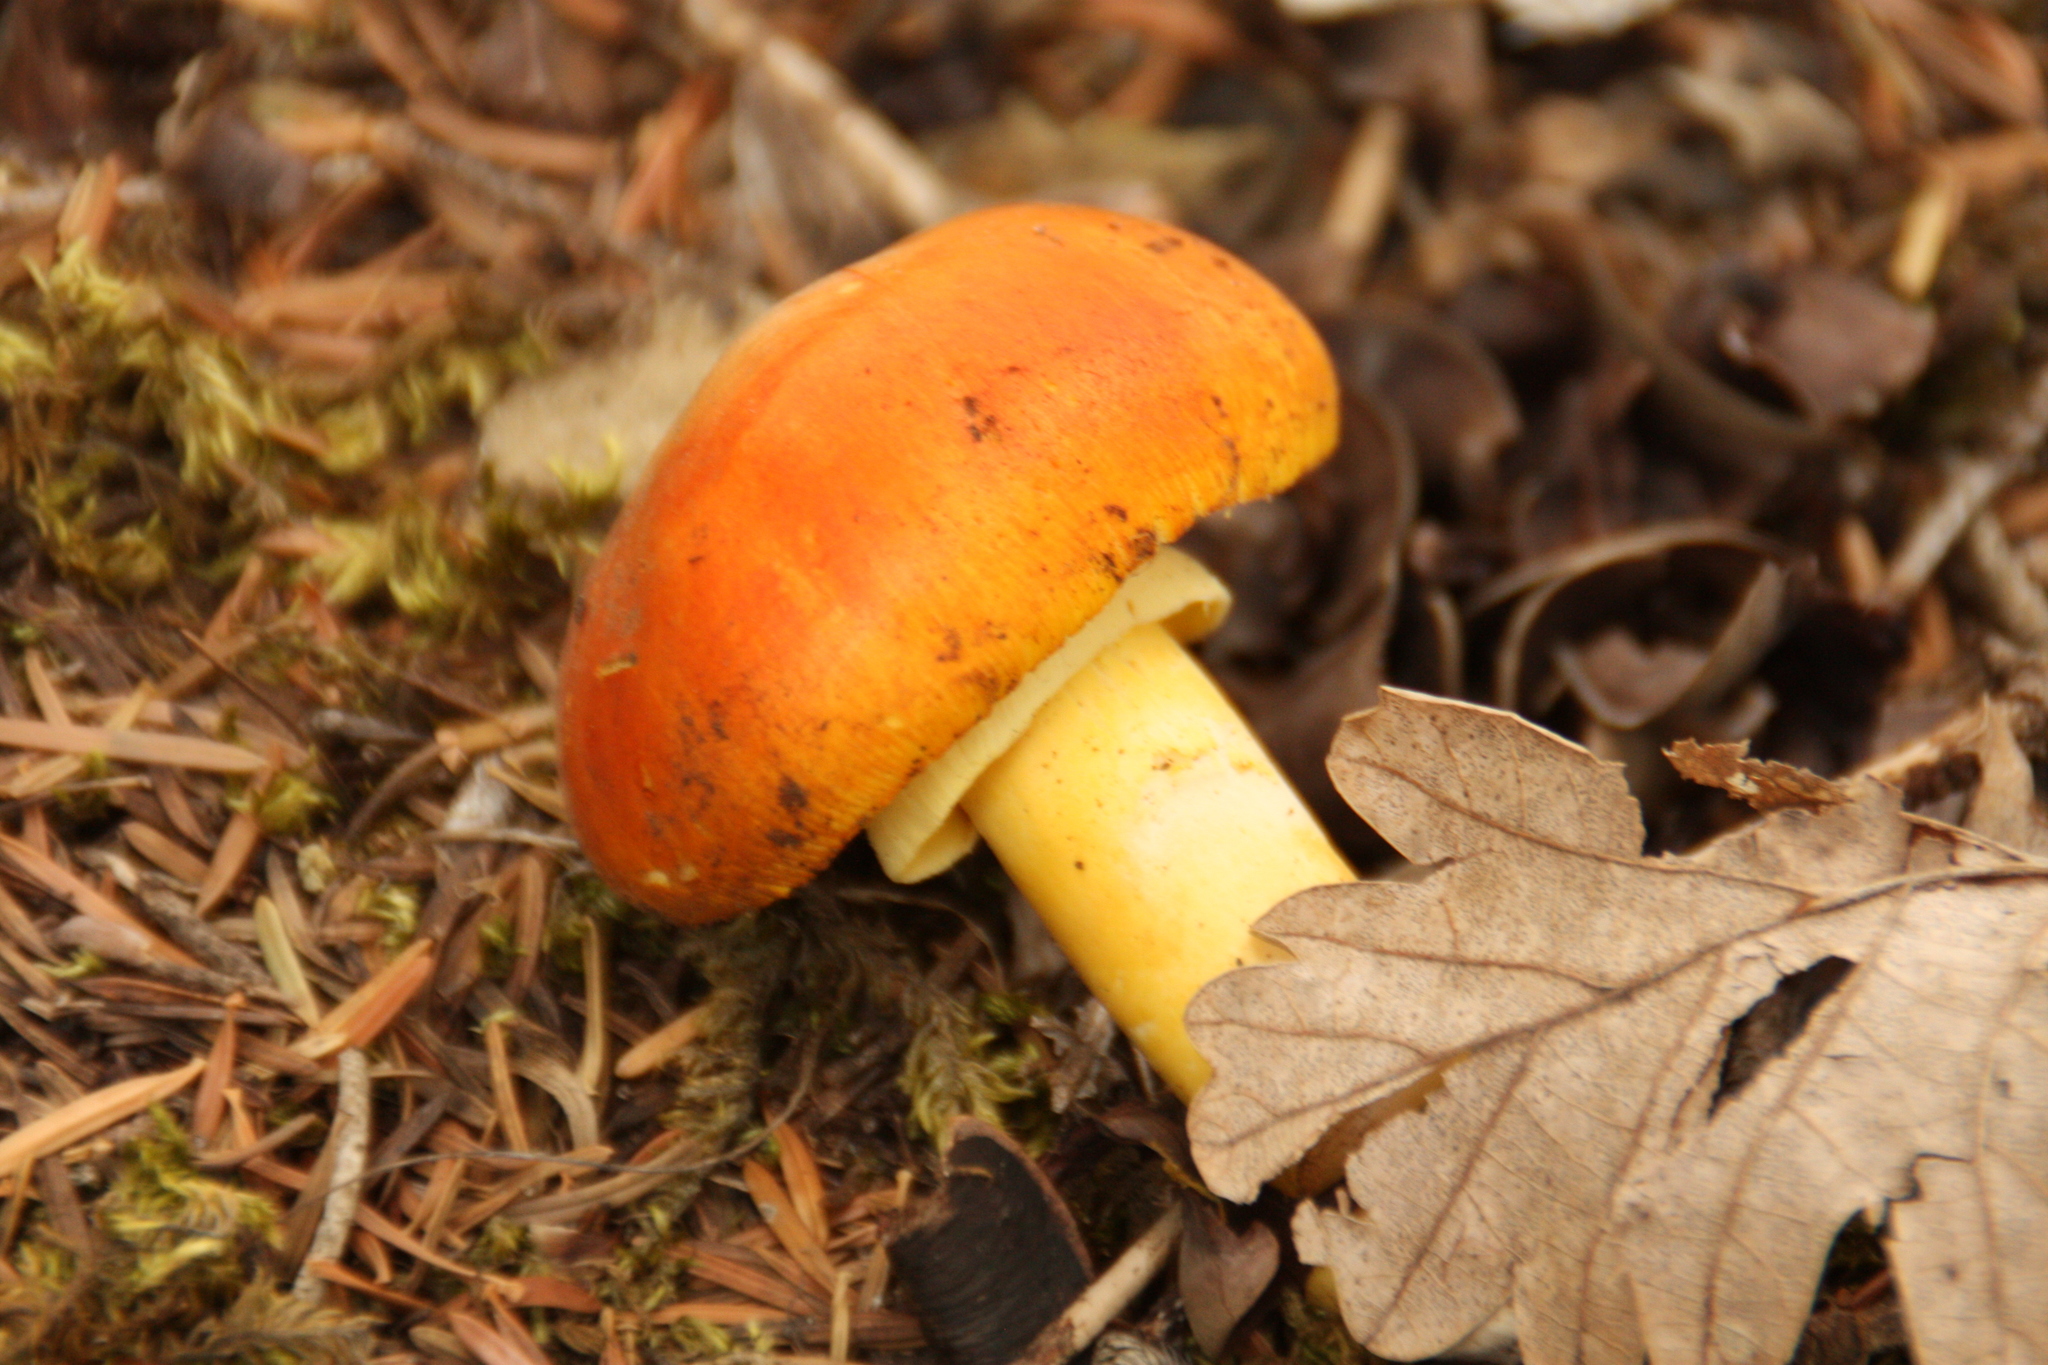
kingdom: Fungi
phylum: Basidiomycota
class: Agaricomycetes
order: Agaricales
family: Amanitaceae
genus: Amanita
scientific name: Amanita caesarea
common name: Caesar's amanita
